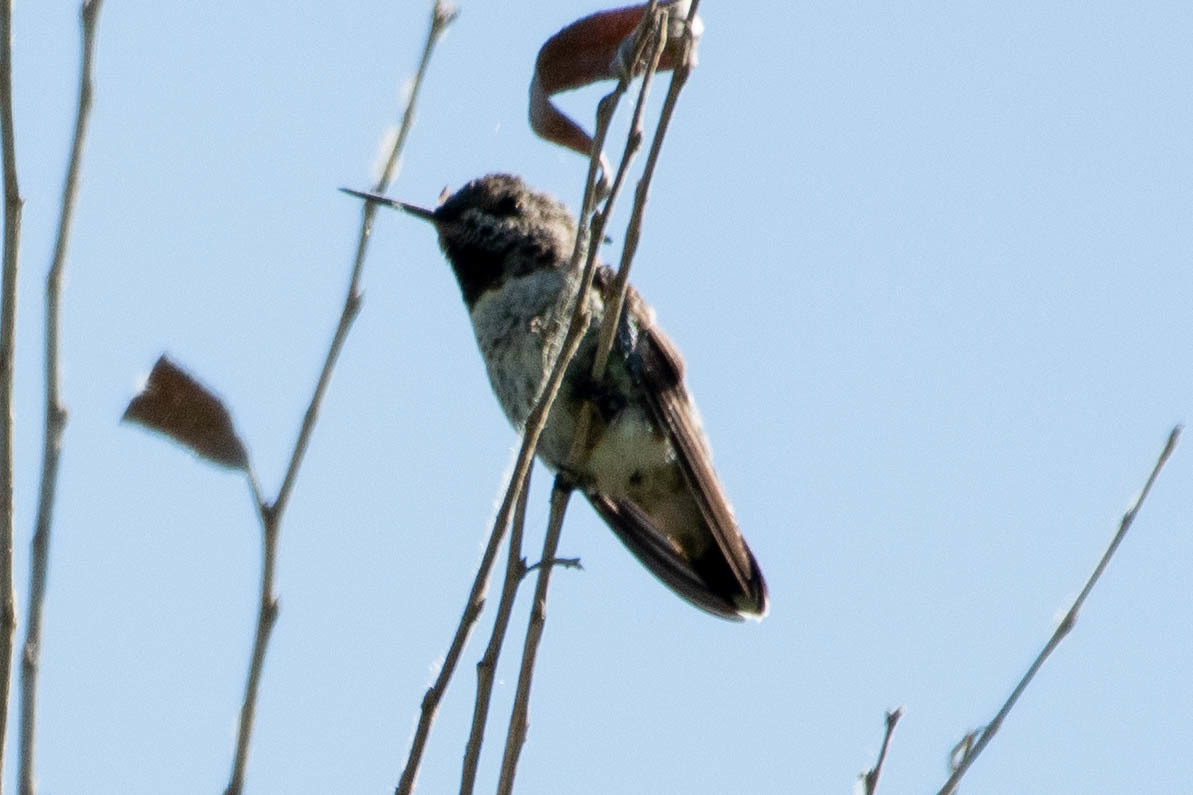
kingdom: Animalia
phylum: Chordata
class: Aves
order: Apodiformes
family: Trochilidae
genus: Calypte
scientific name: Calypte anna
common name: Anna's hummingbird
